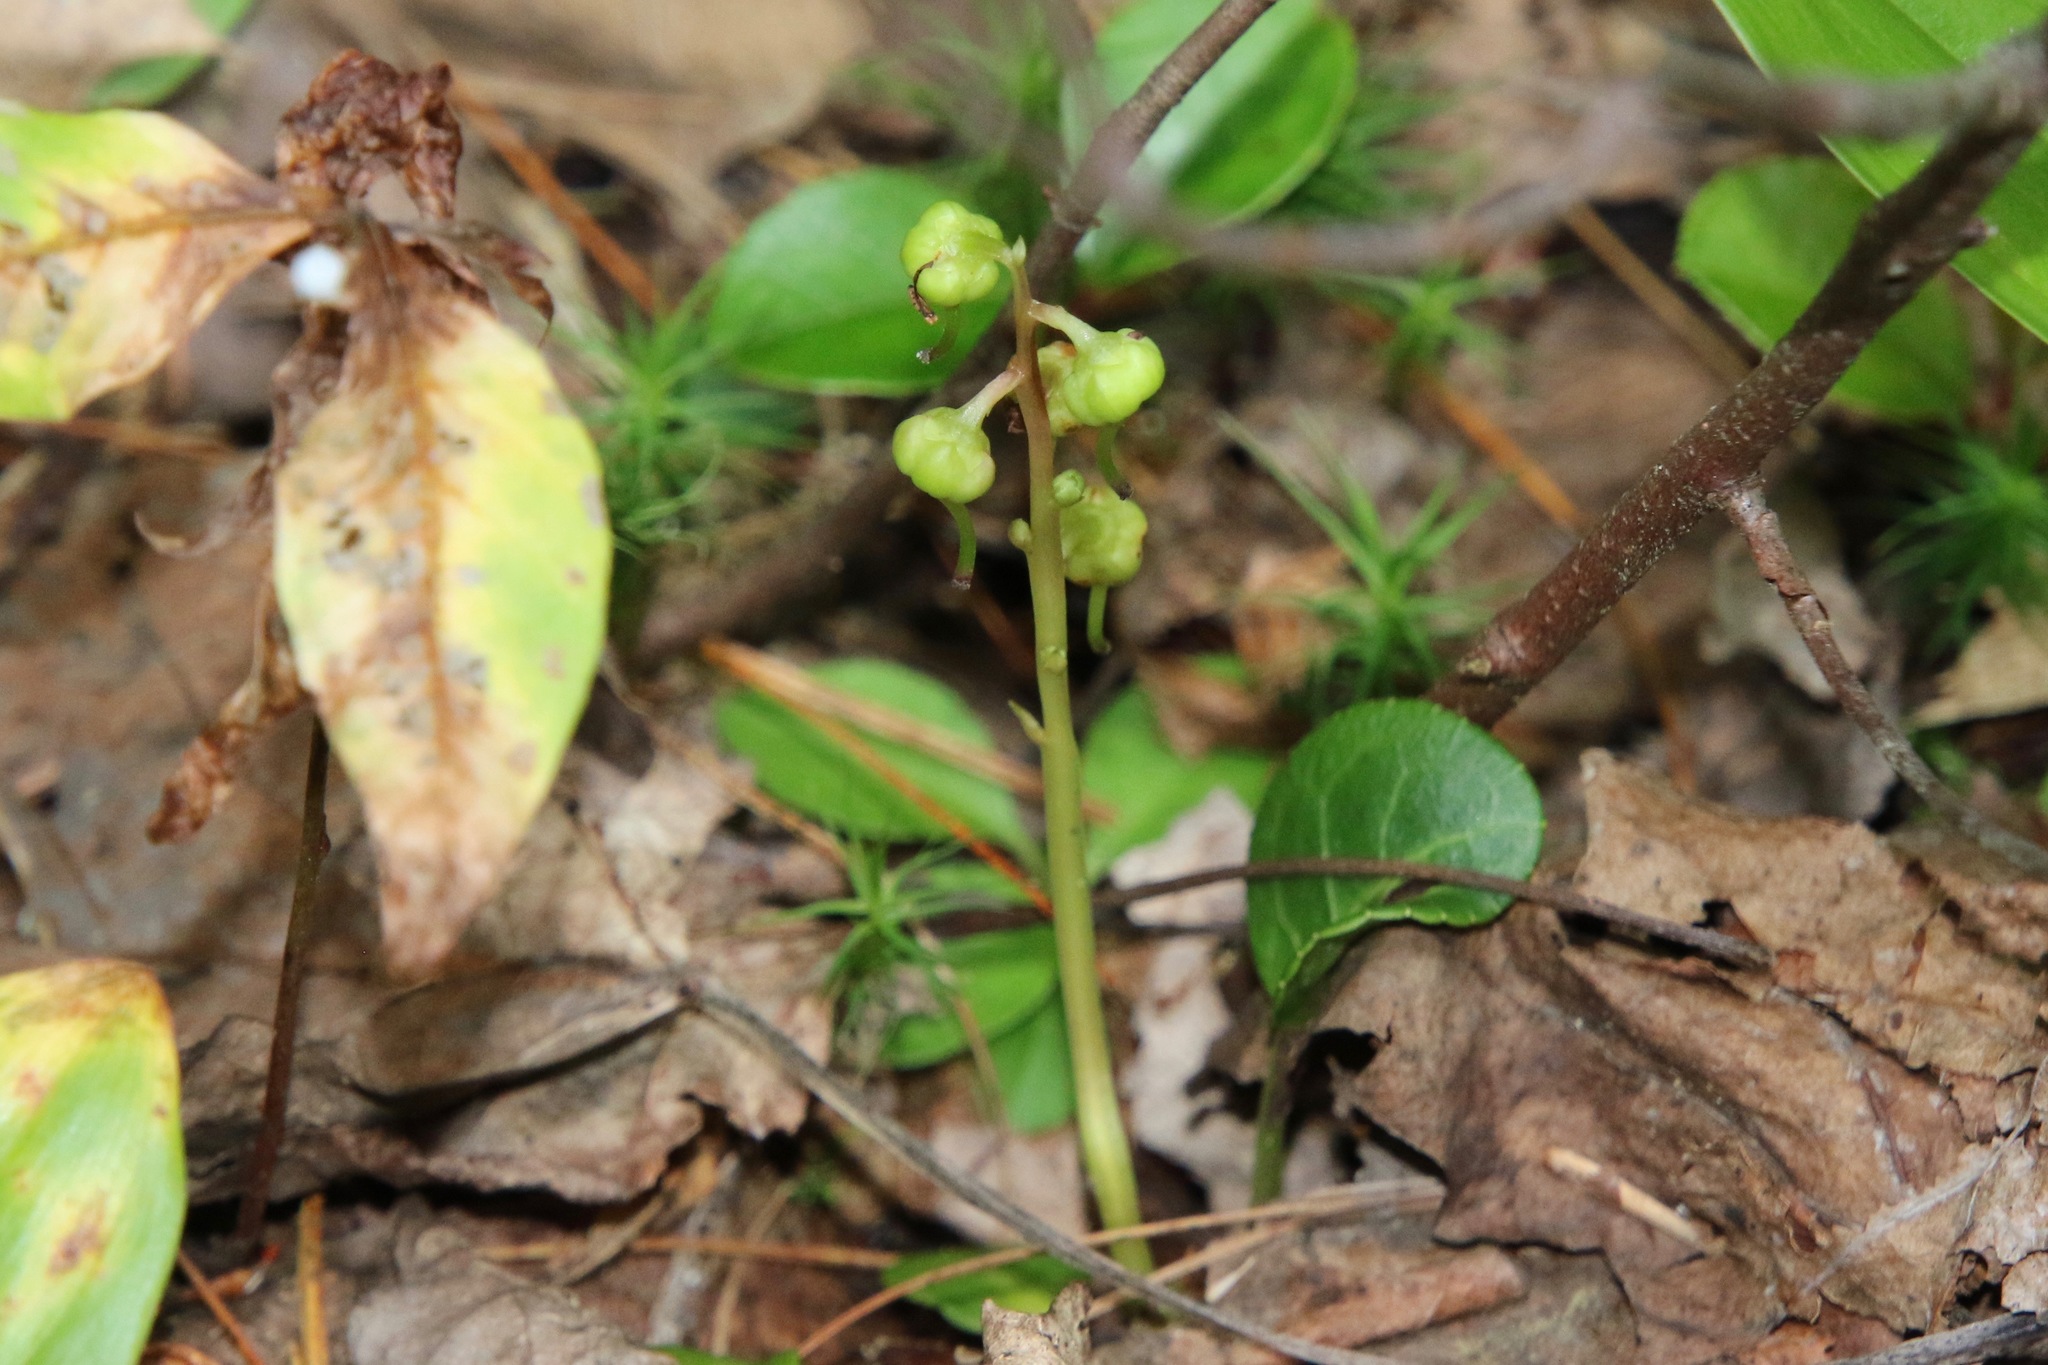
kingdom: Plantae
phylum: Tracheophyta
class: Magnoliopsida
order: Ericales
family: Ericaceae
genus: Pyrola
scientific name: Pyrola chlorantha
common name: Green wintergreen
